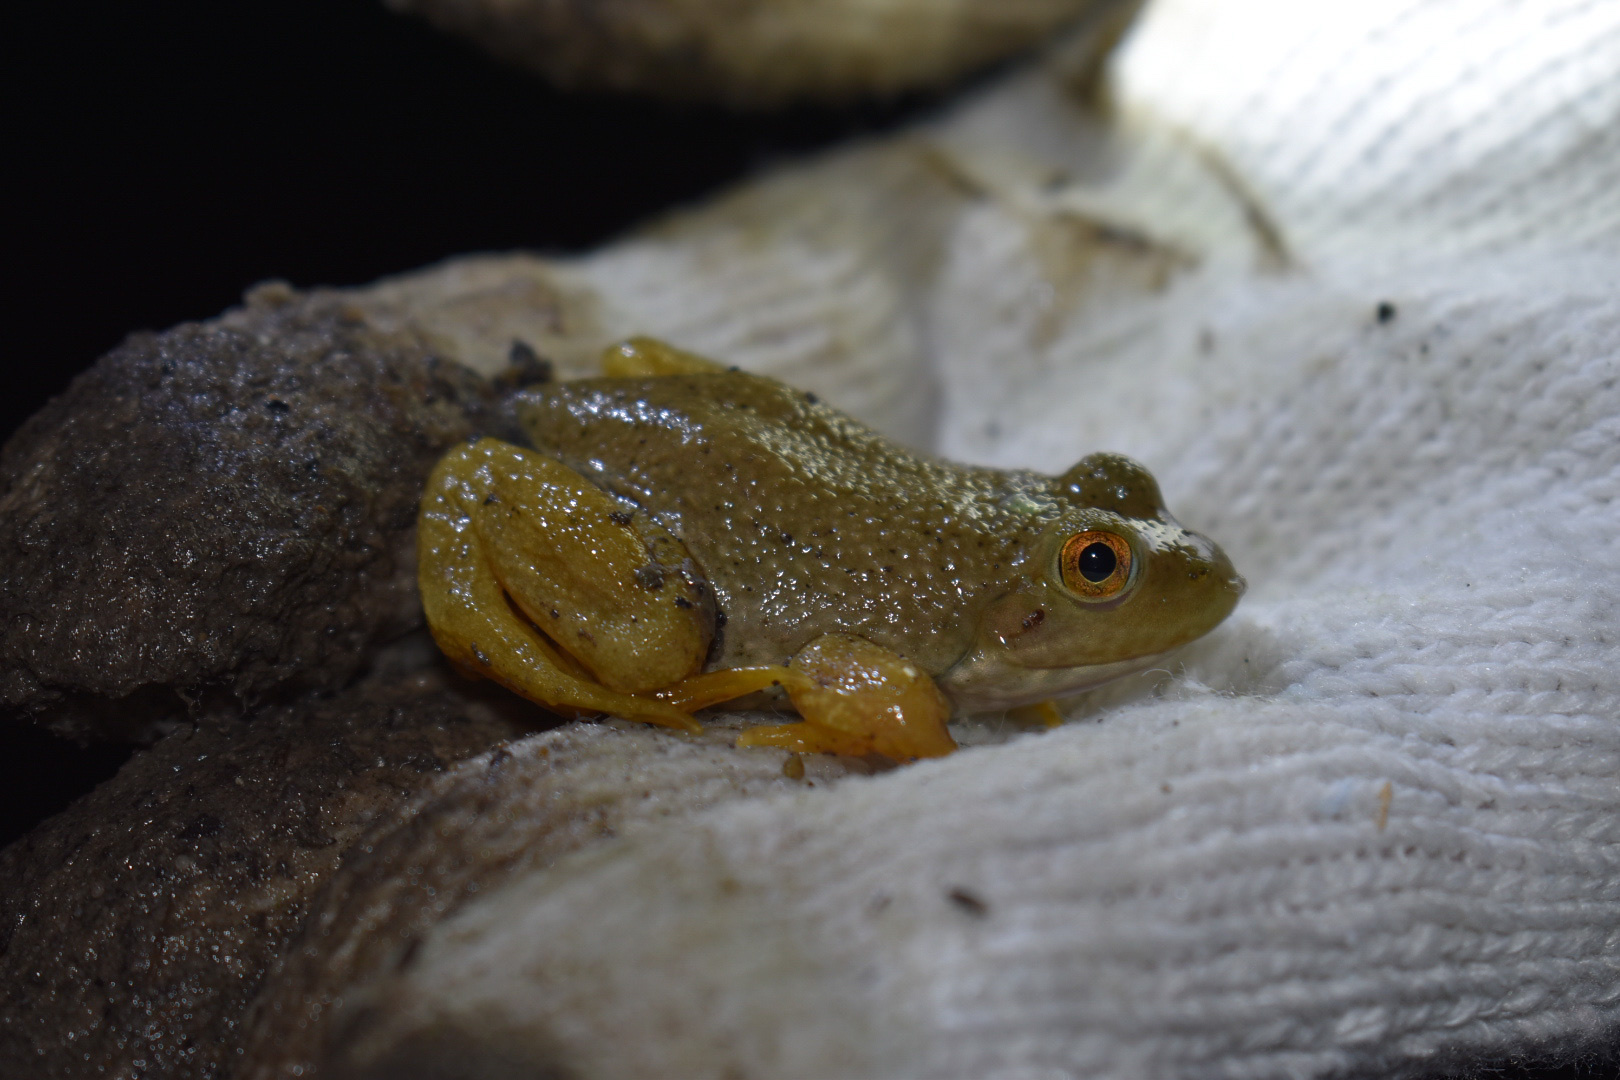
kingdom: Animalia
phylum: Chordata
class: Amphibia
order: Anura
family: Ranidae
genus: Lithobates
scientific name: Lithobates catesbeianus
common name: American bullfrog
